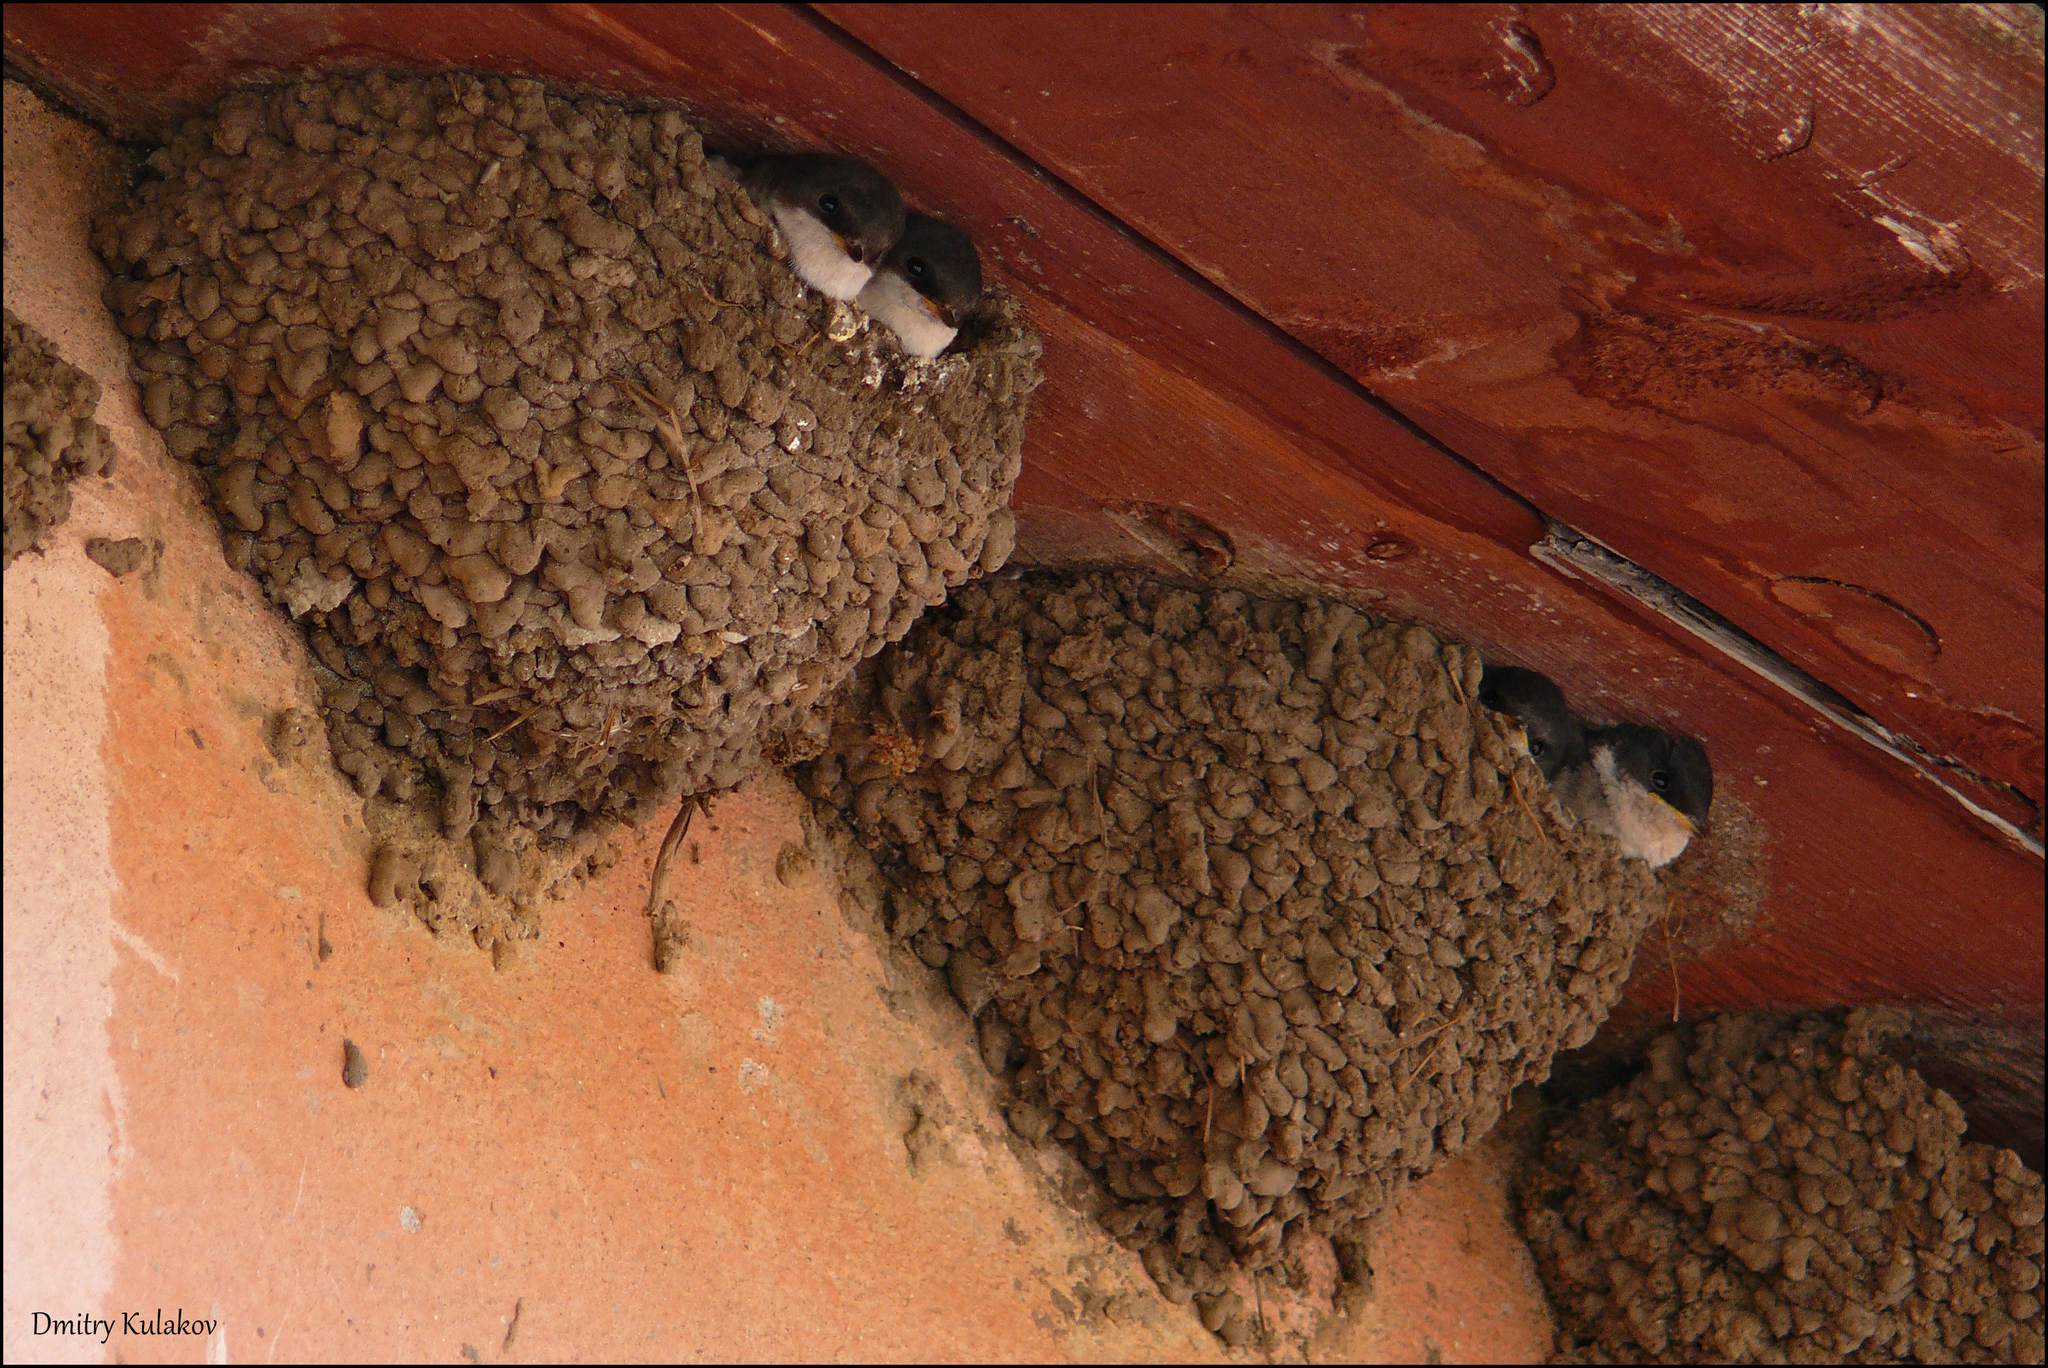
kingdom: Animalia
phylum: Chordata
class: Aves
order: Passeriformes
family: Hirundinidae
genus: Delichon
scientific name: Delichon urbicum
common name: Common house martin
